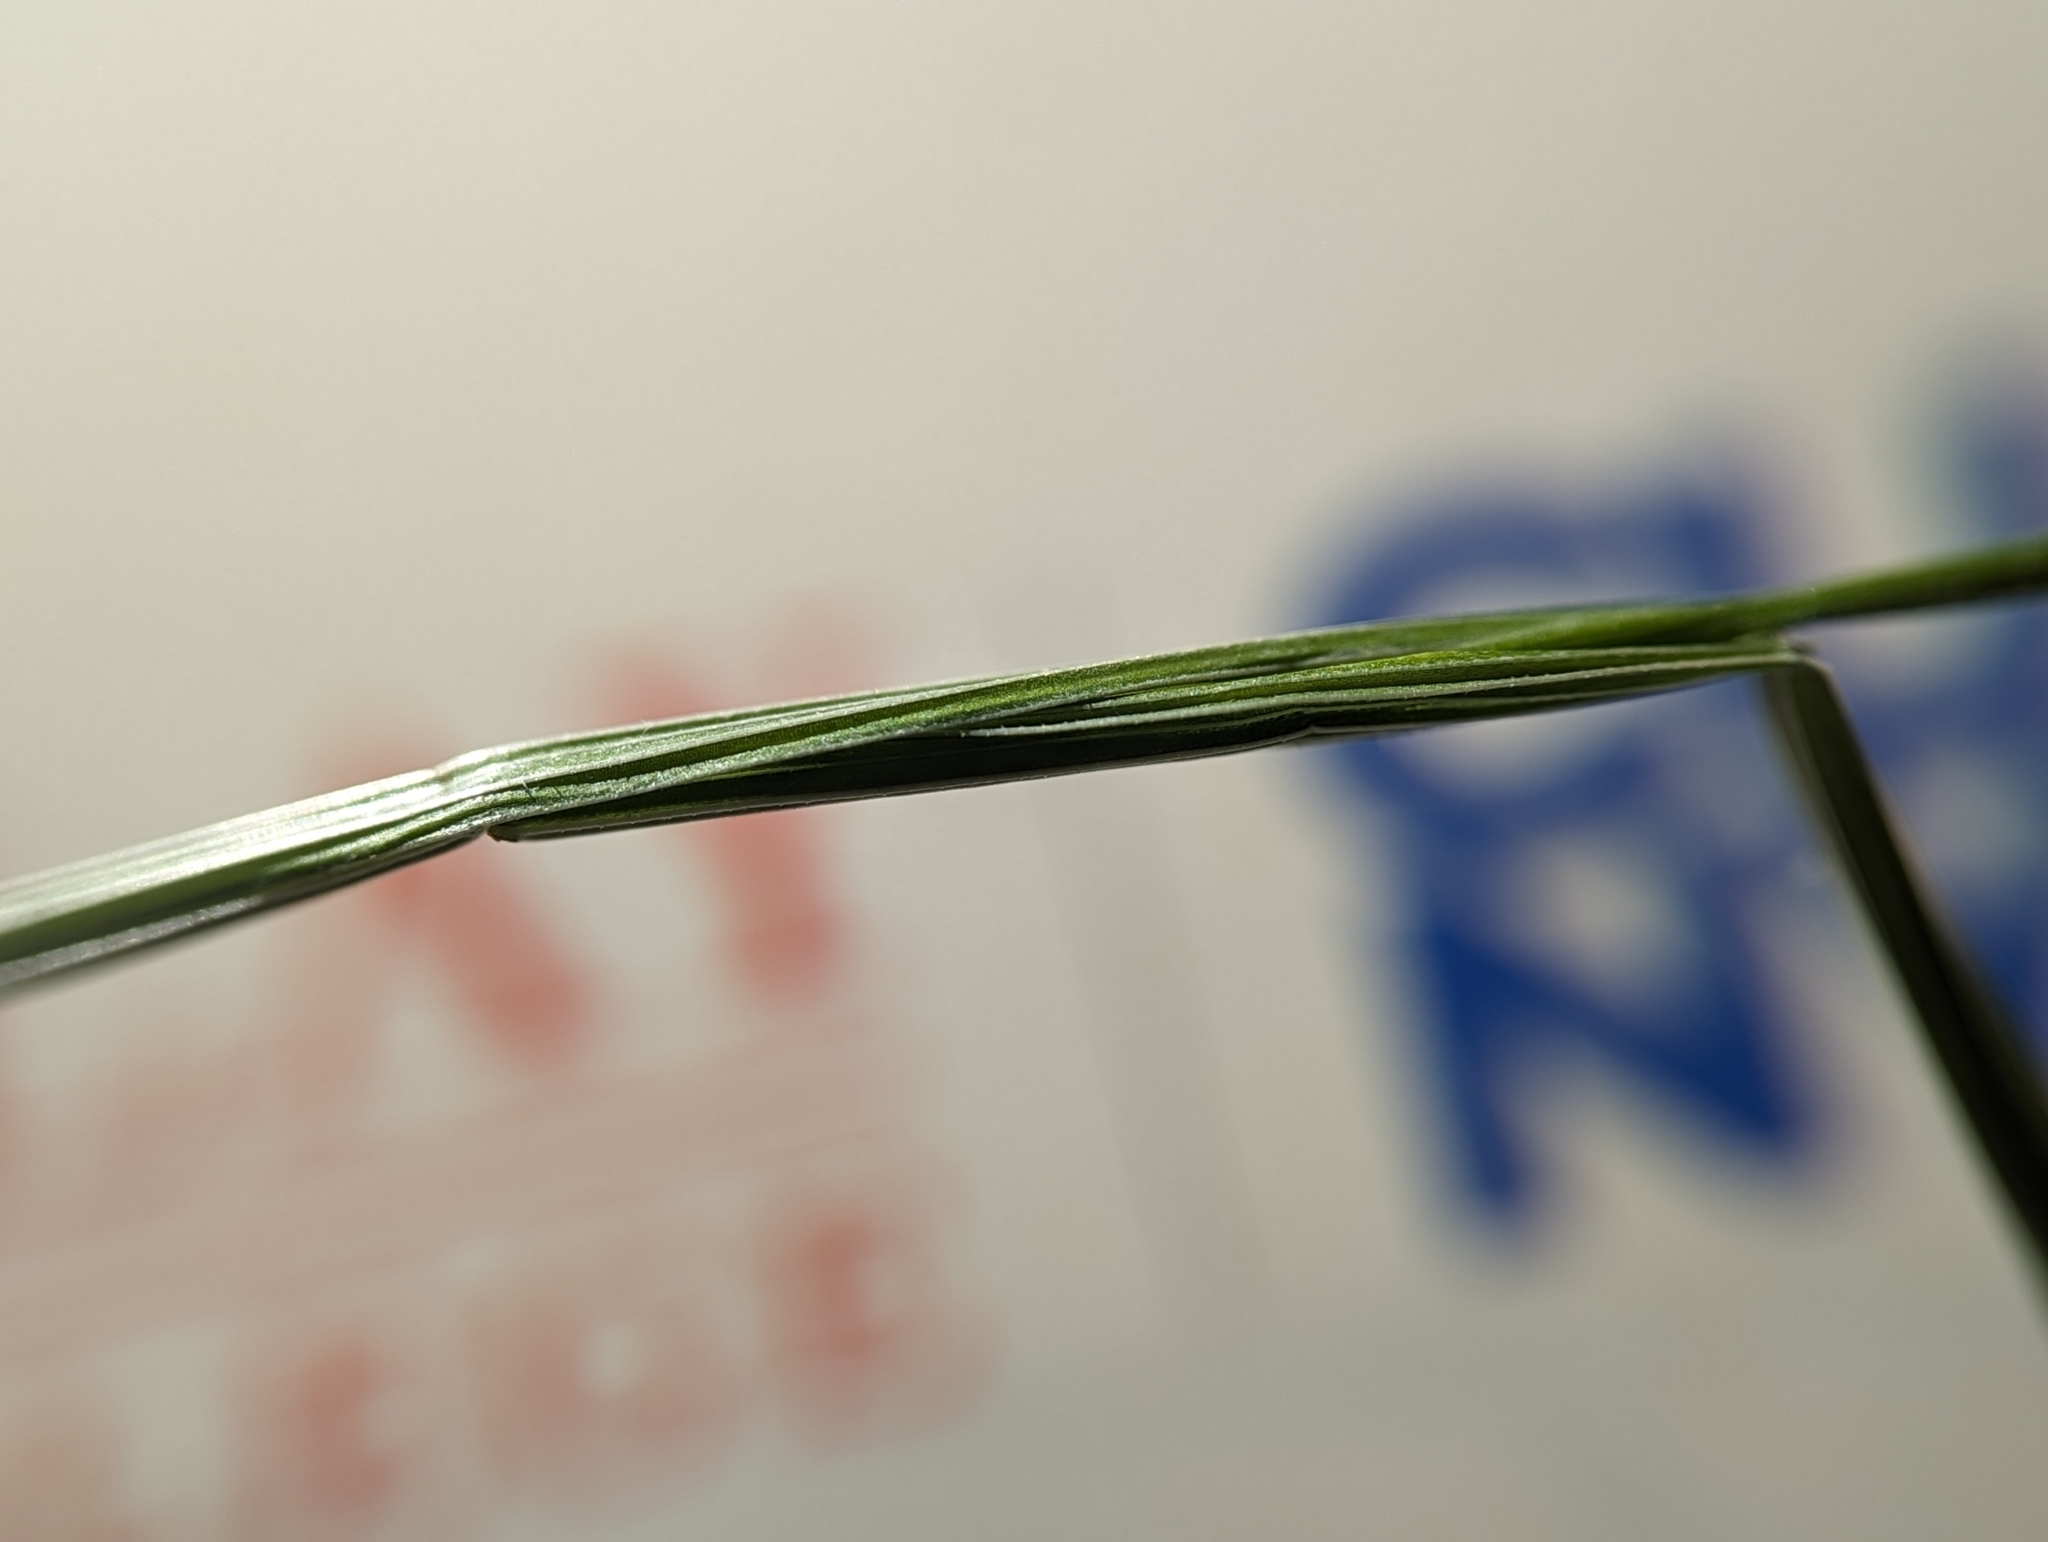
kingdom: Plantae
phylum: Tracheophyta
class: Liliopsida
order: Poales
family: Poaceae
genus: Poa
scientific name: Poa trivialis
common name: Rough bluegrass
